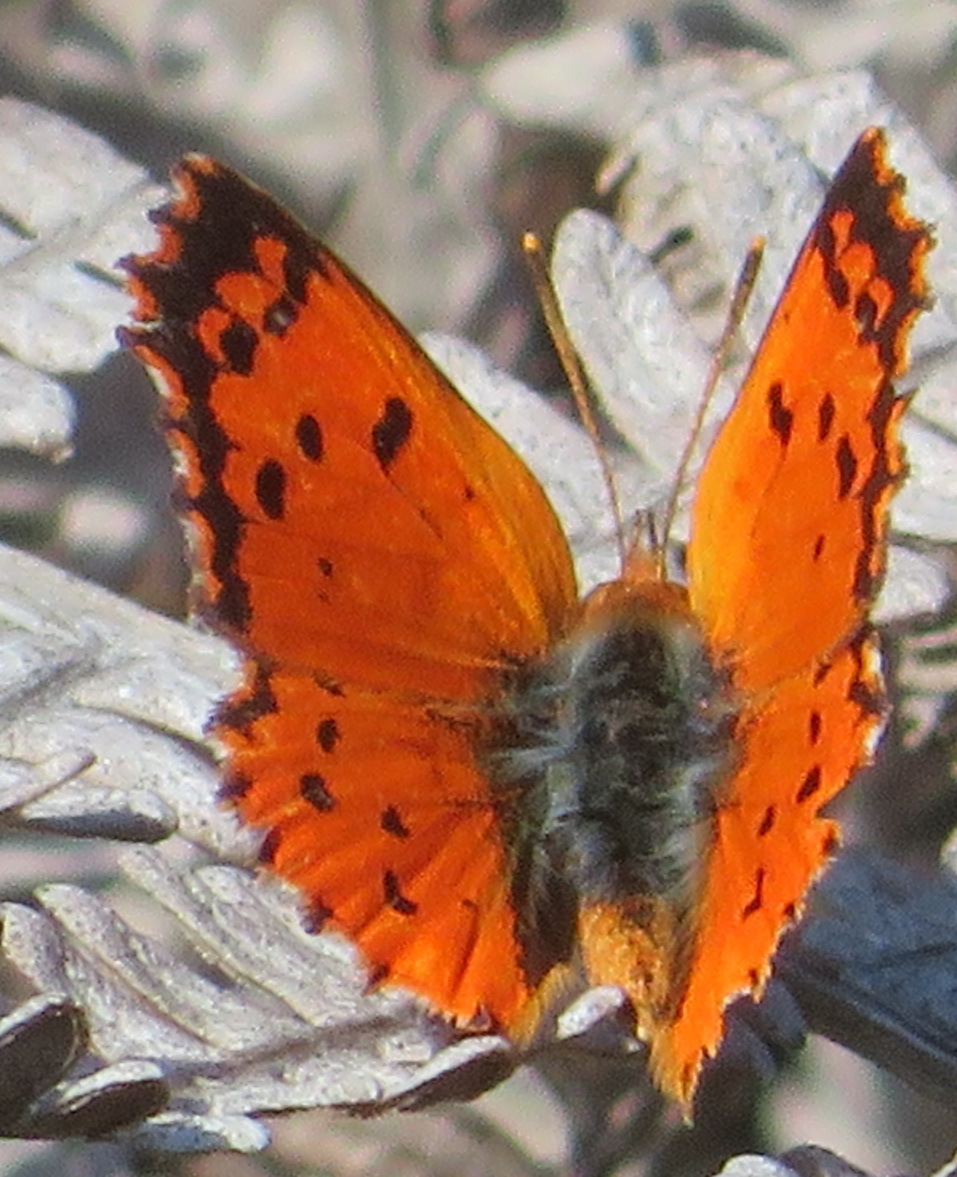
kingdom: Animalia
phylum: Arthropoda
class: Insecta
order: Lepidoptera
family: Lycaenidae
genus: Chrysoritis
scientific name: Chrysoritis
